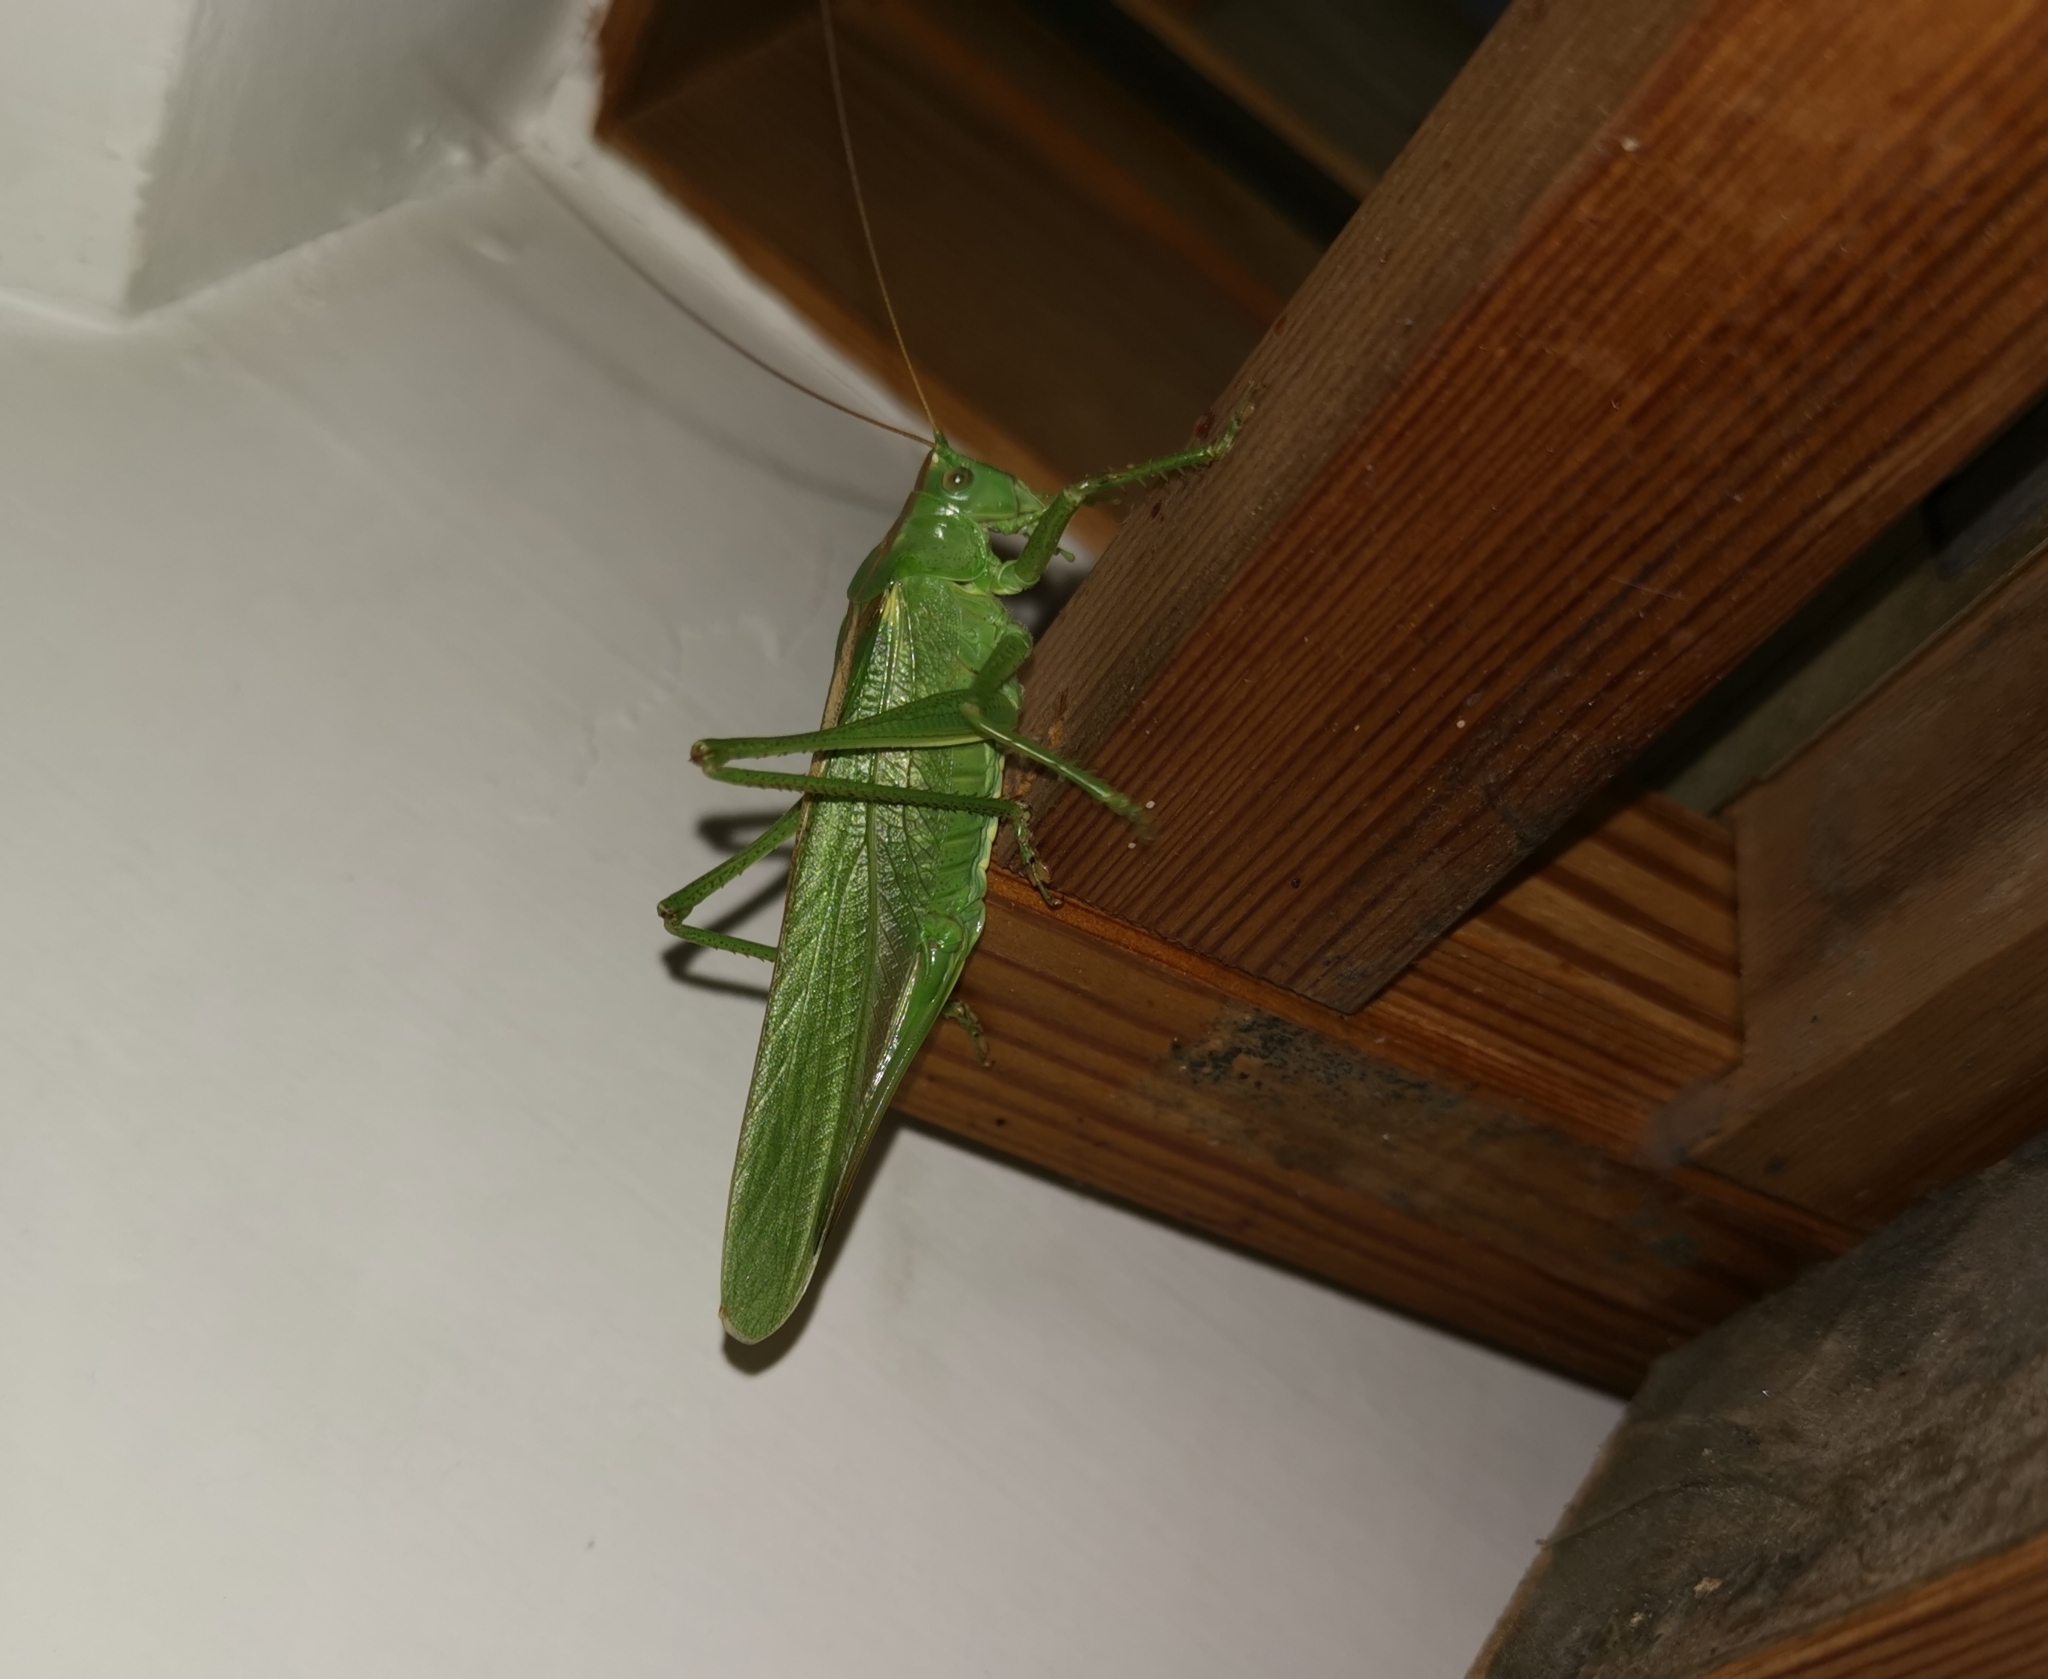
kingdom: Animalia
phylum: Arthropoda
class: Insecta
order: Orthoptera
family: Tettigoniidae
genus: Tettigonia
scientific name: Tettigonia viridissima
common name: Great green bush-cricket
